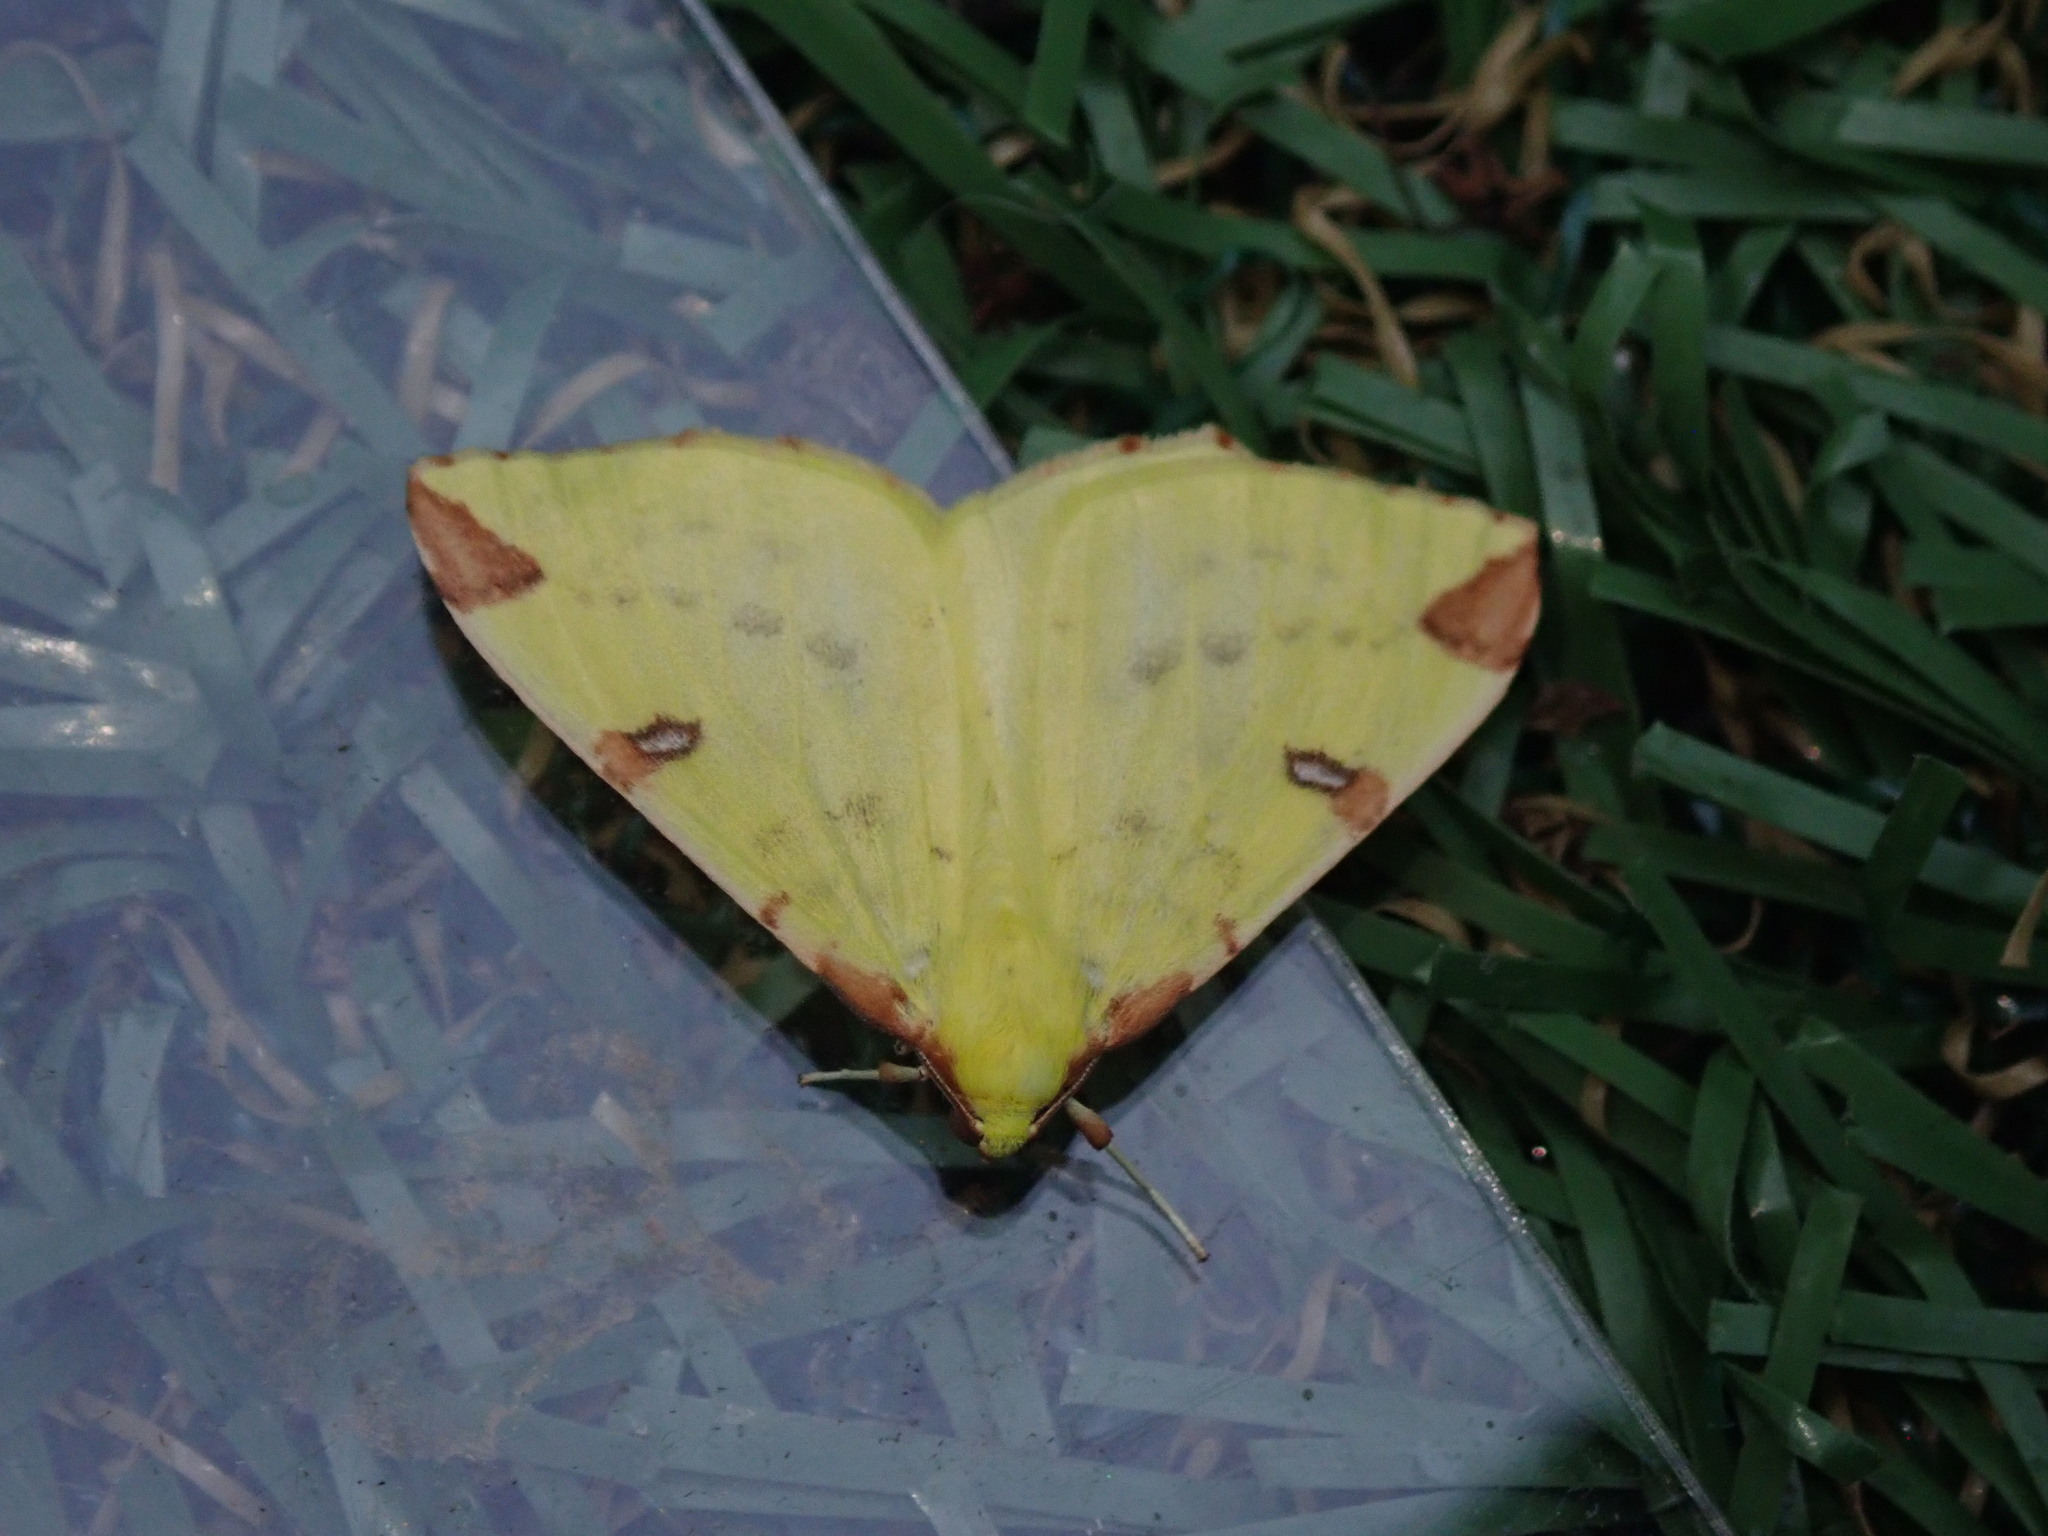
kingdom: Animalia
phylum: Arthropoda
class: Insecta
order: Lepidoptera
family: Geometridae
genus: Opisthograptis
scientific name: Opisthograptis luteolata
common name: Brimstone moth
